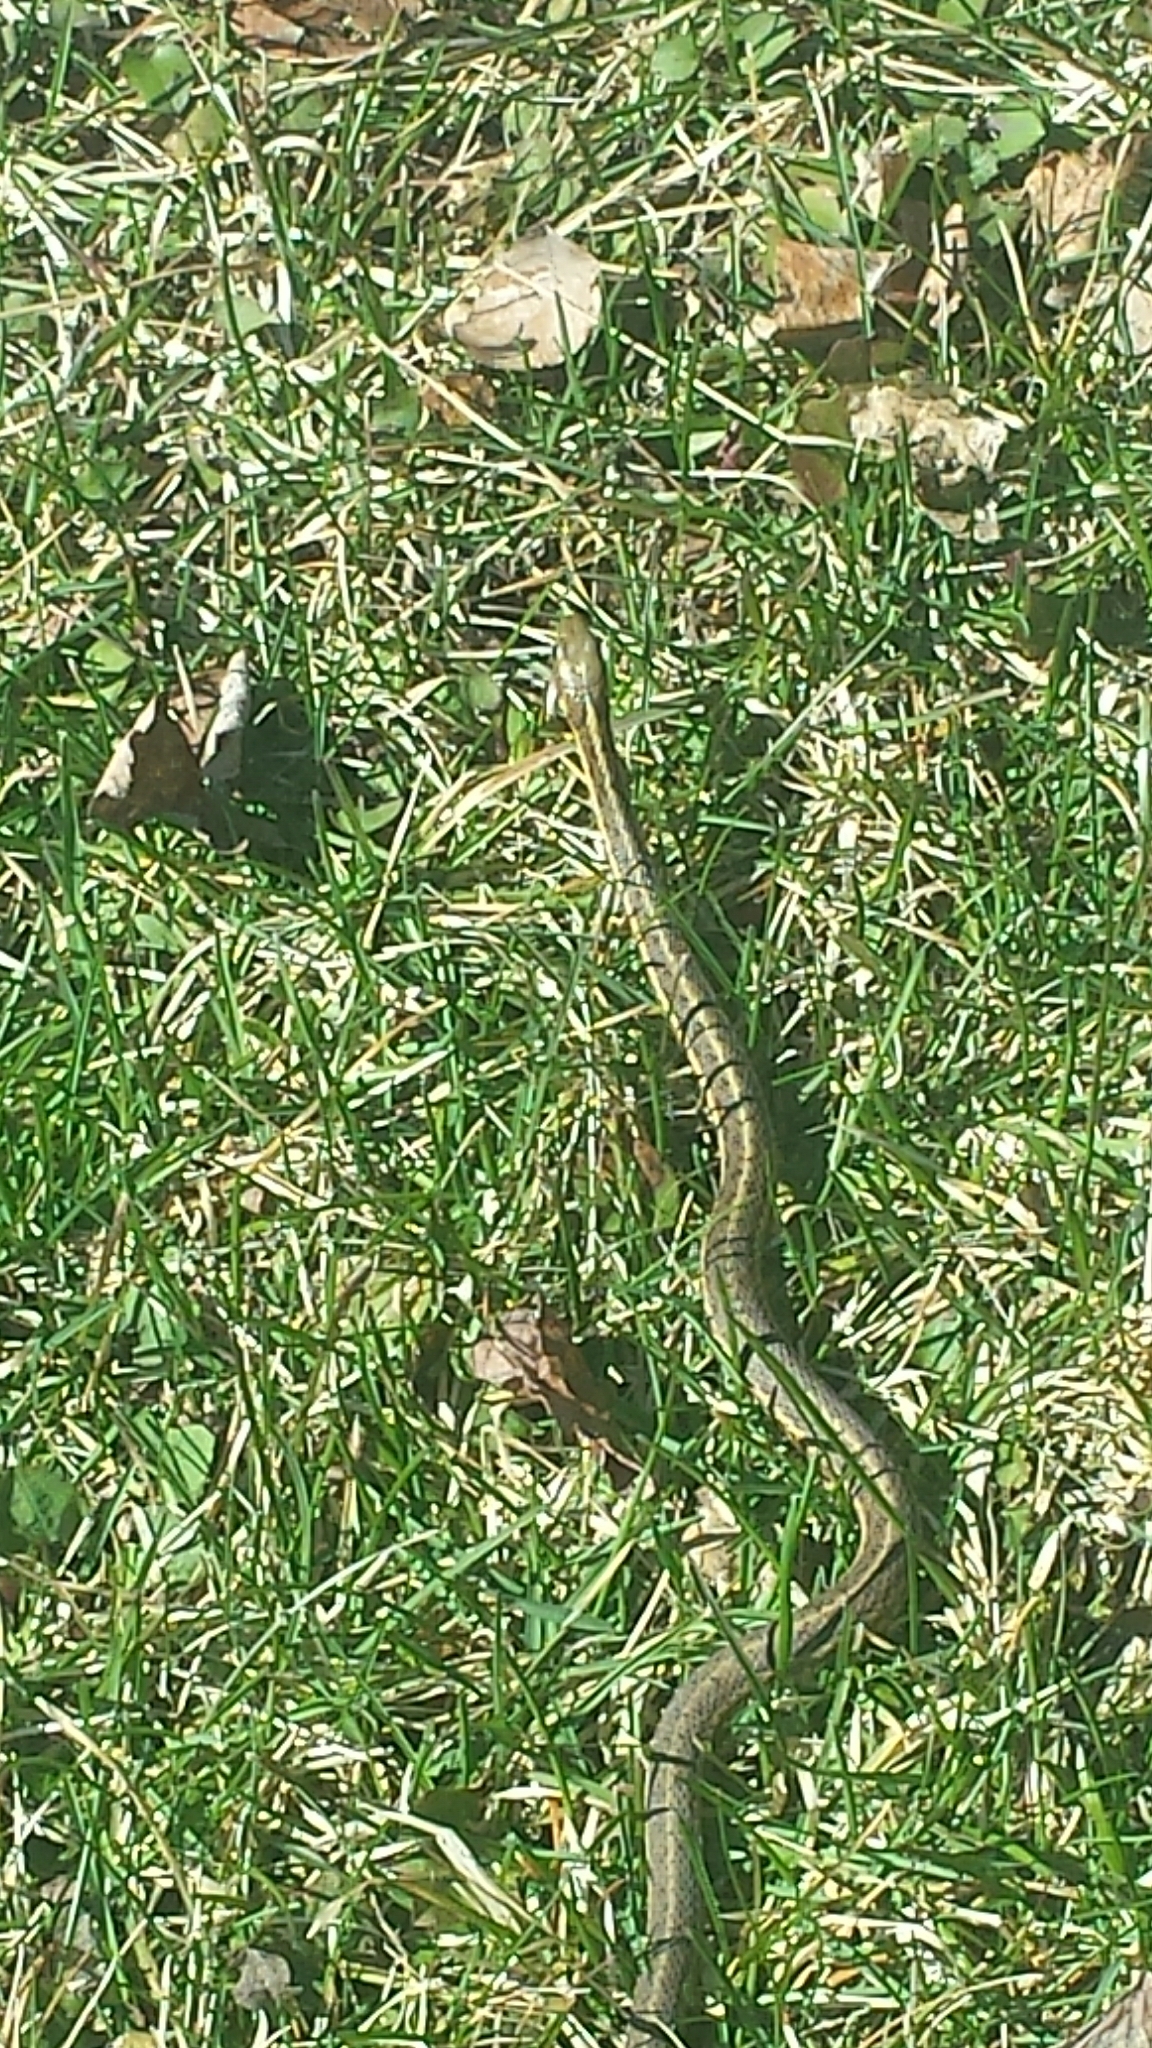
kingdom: Animalia
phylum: Chordata
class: Squamata
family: Colubridae
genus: Thamnophis
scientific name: Thamnophis sirtalis
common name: Common garter snake
